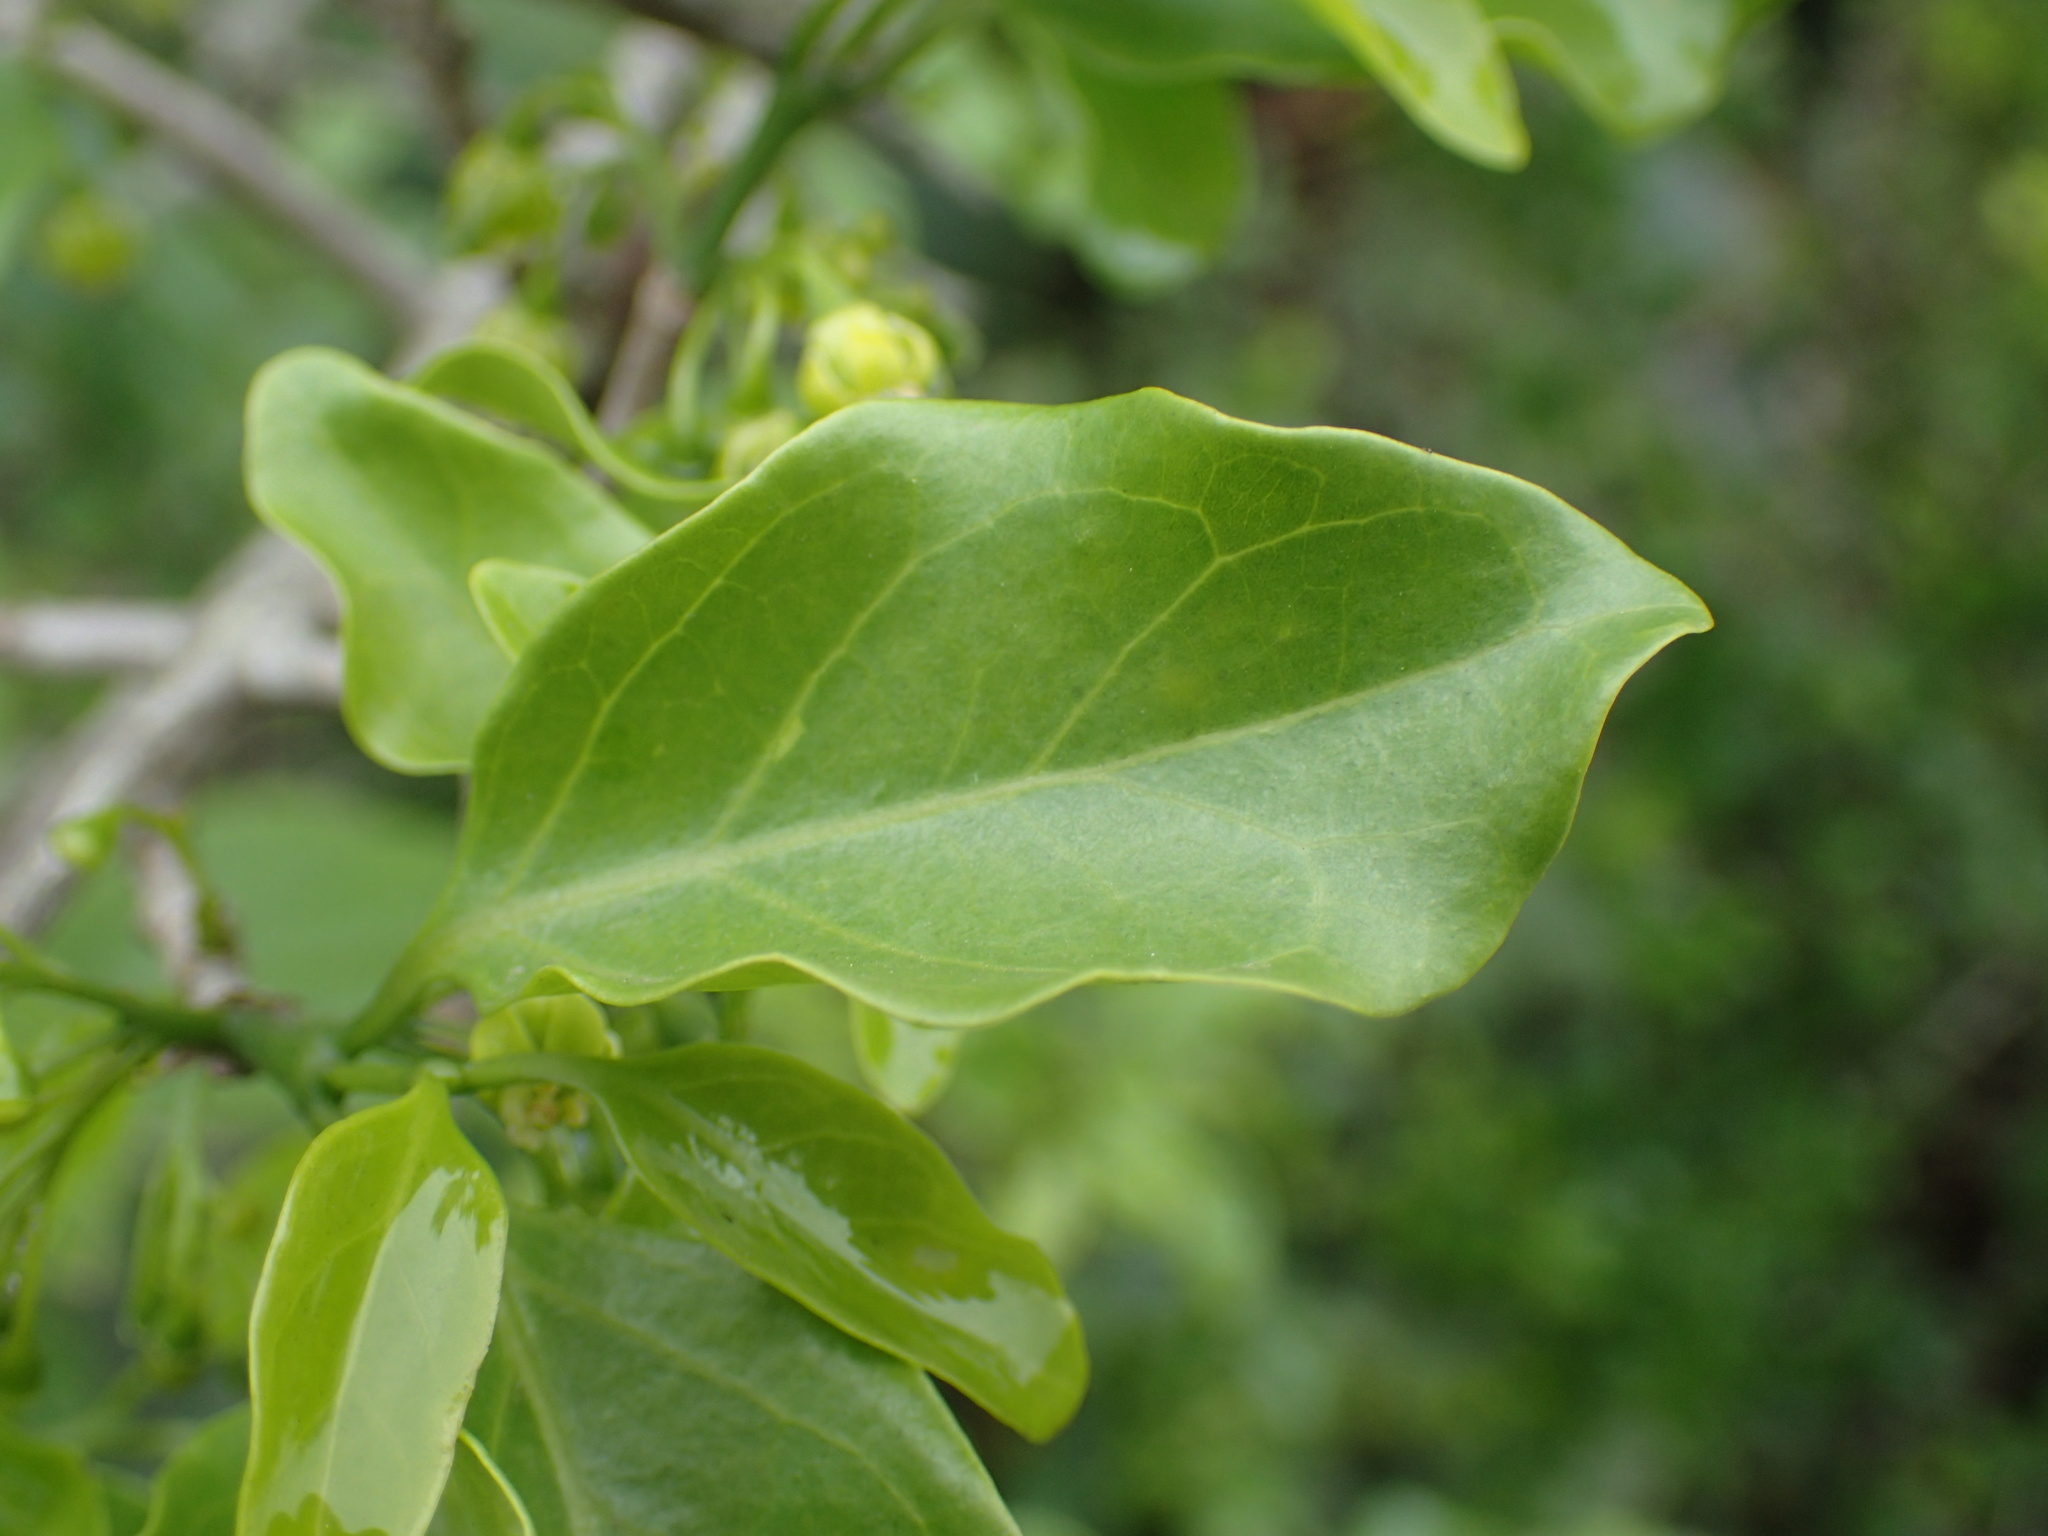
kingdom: Plantae
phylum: Tracheophyta
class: Magnoliopsida
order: Gentianales
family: Rubiaceae
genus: Canthium
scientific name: Canthium inerme
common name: Unarmed turkey-berry
